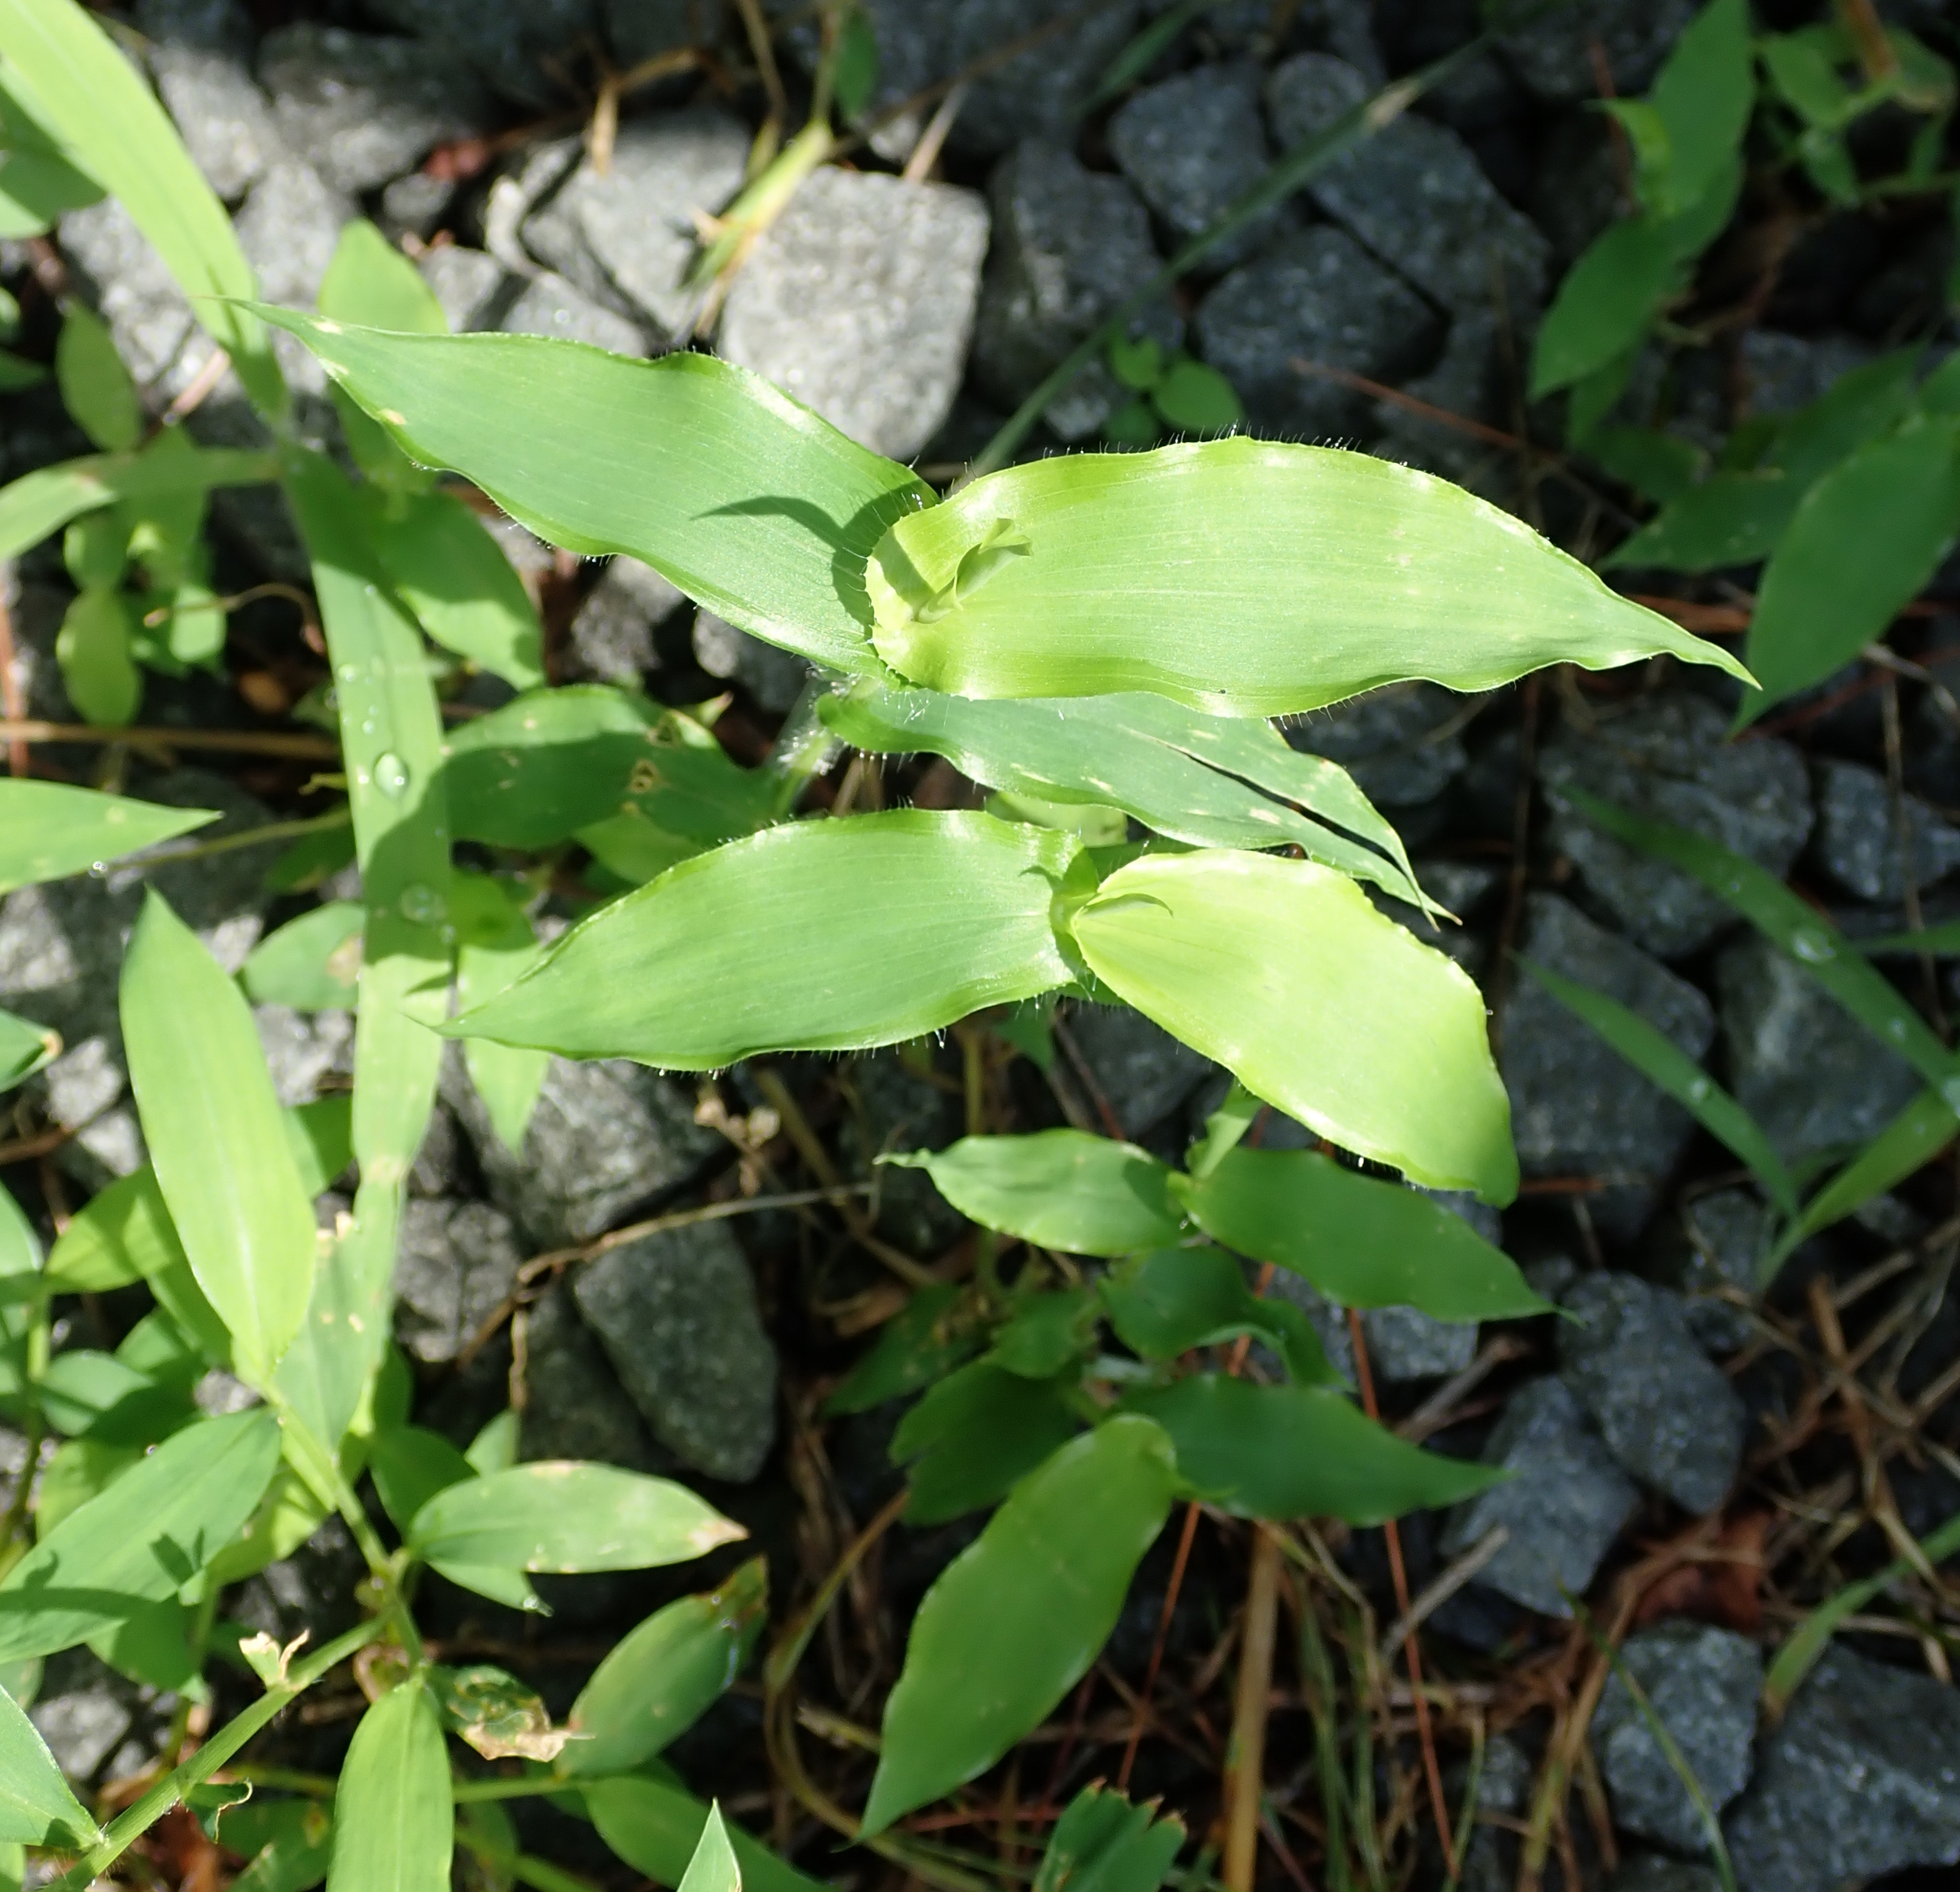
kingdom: Plantae
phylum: Tracheophyta
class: Liliopsida
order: Poales
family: Poaceae
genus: Arthraxon
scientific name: Arthraxon hispidus
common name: Small carpgrass
